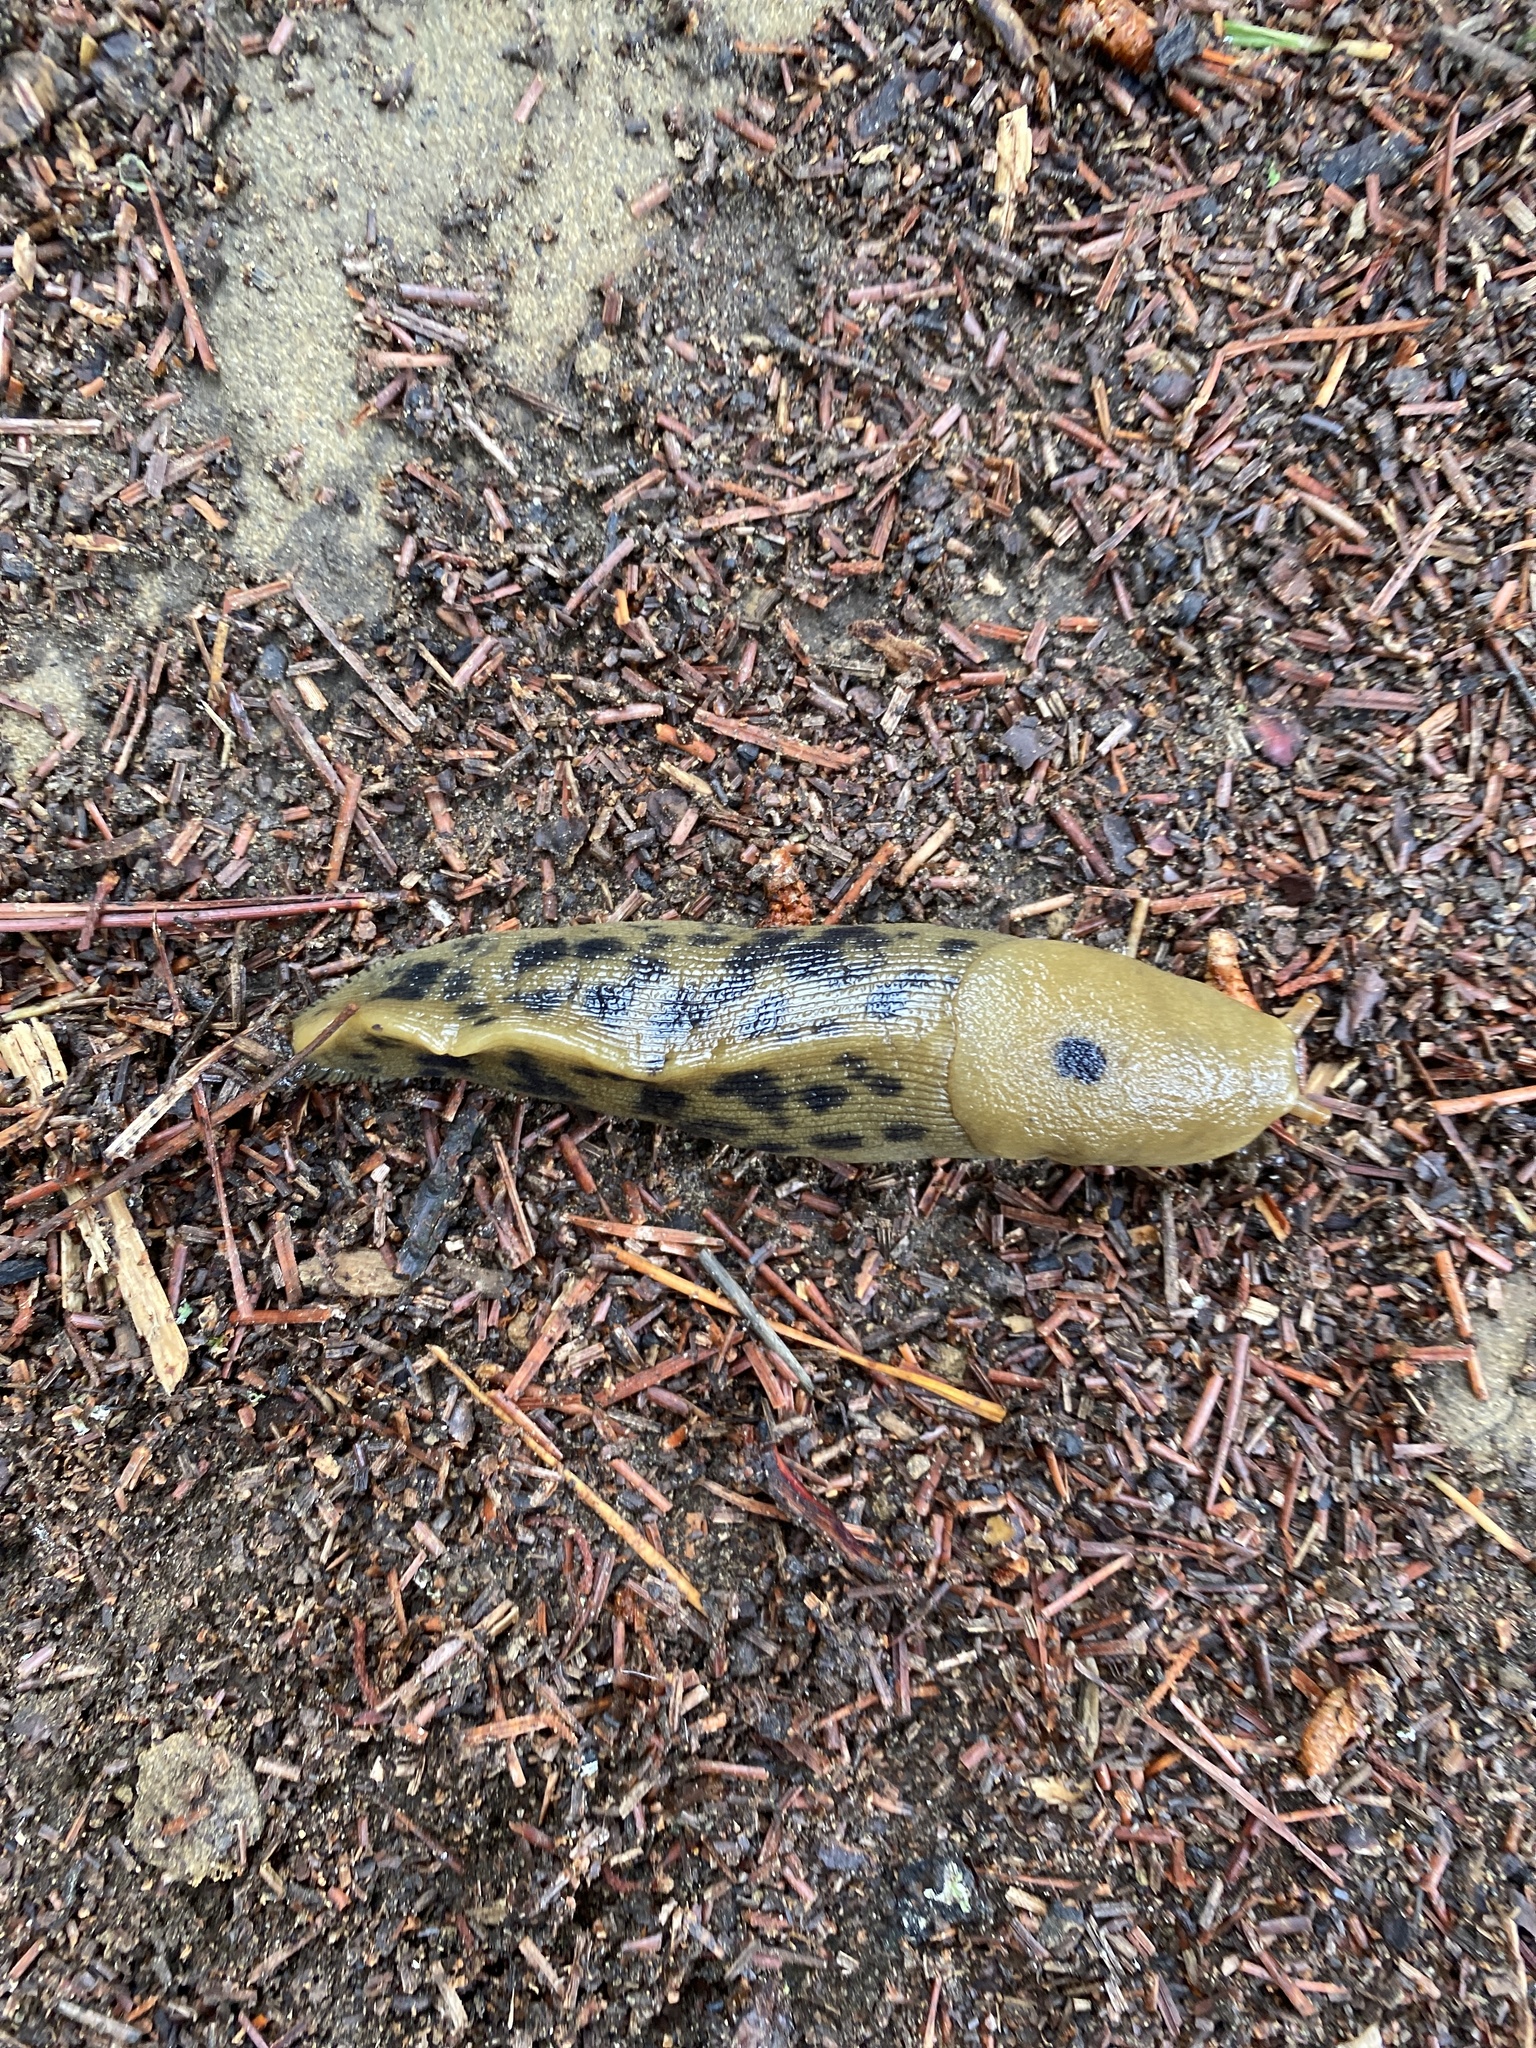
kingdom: Animalia
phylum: Mollusca
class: Gastropoda
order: Stylommatophora
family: Ariolimacidae
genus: Ariolimax
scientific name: Ariolimax buttoni
